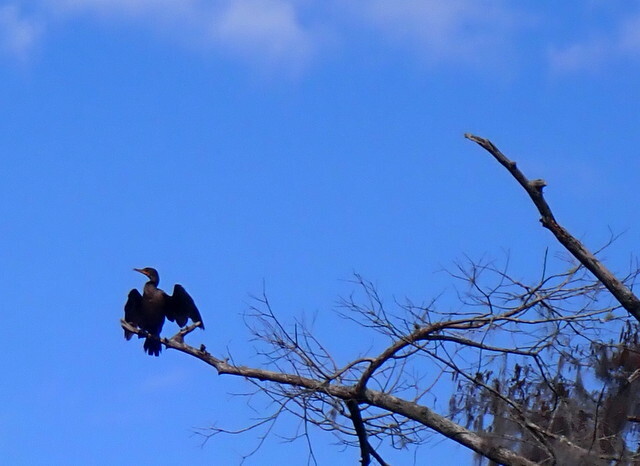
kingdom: Animalia
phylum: Chordata
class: Aves
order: Suliformes
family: Phalacrocoracidae
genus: Phalacrocorax
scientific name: Phalacrocorax auritus
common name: Double-crested cormorant
